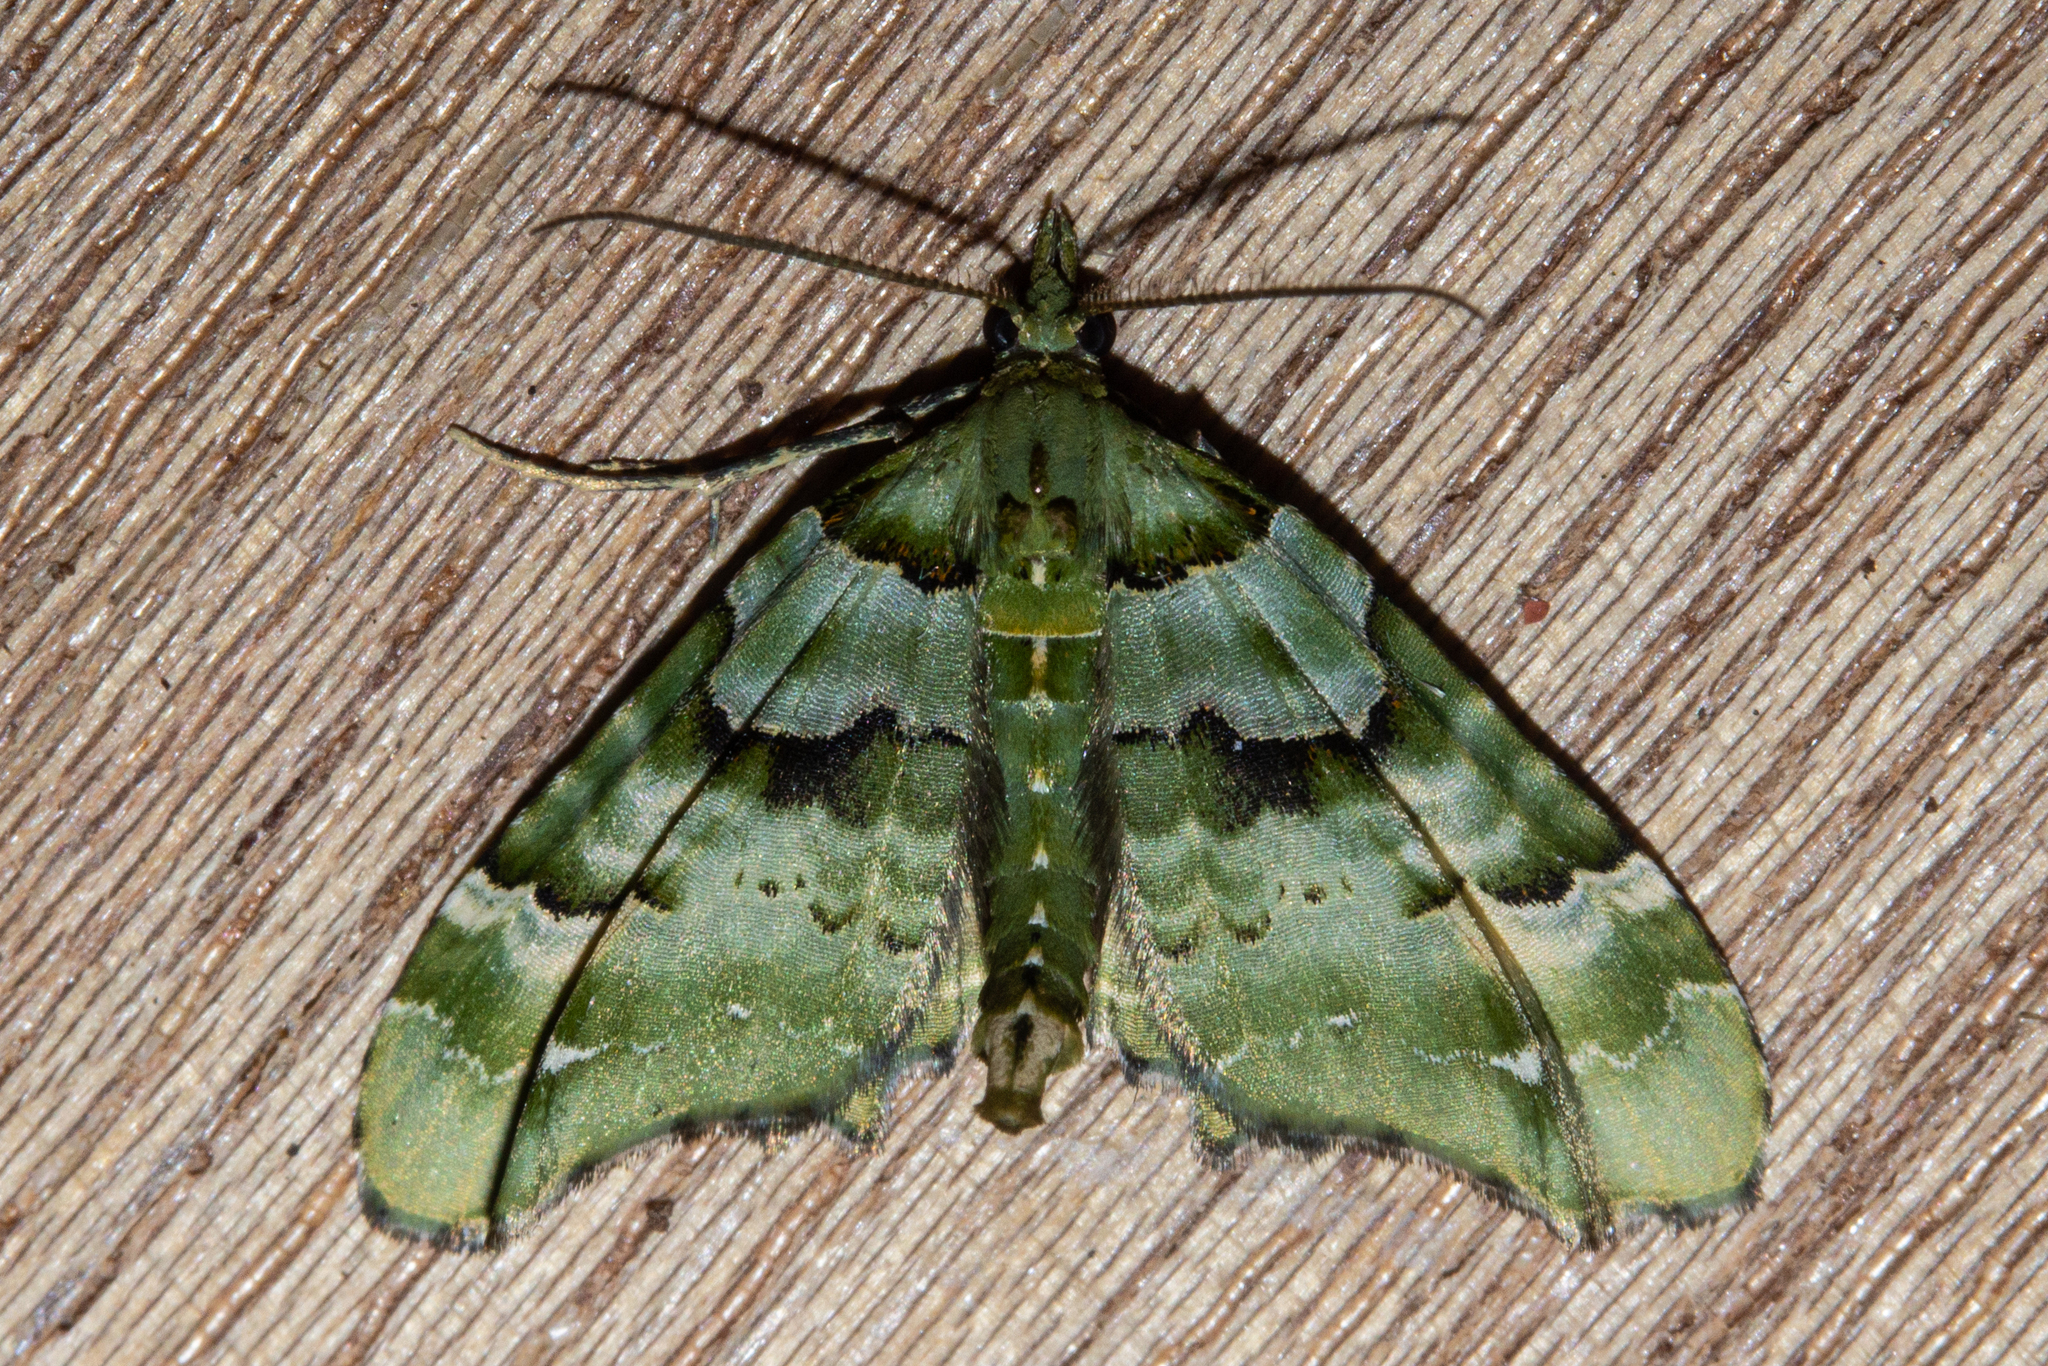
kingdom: Animalia
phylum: Arthropoda
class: Insecta
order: Lepidoptera
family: Geometridae
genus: Elvia
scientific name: Elvia glaucata
